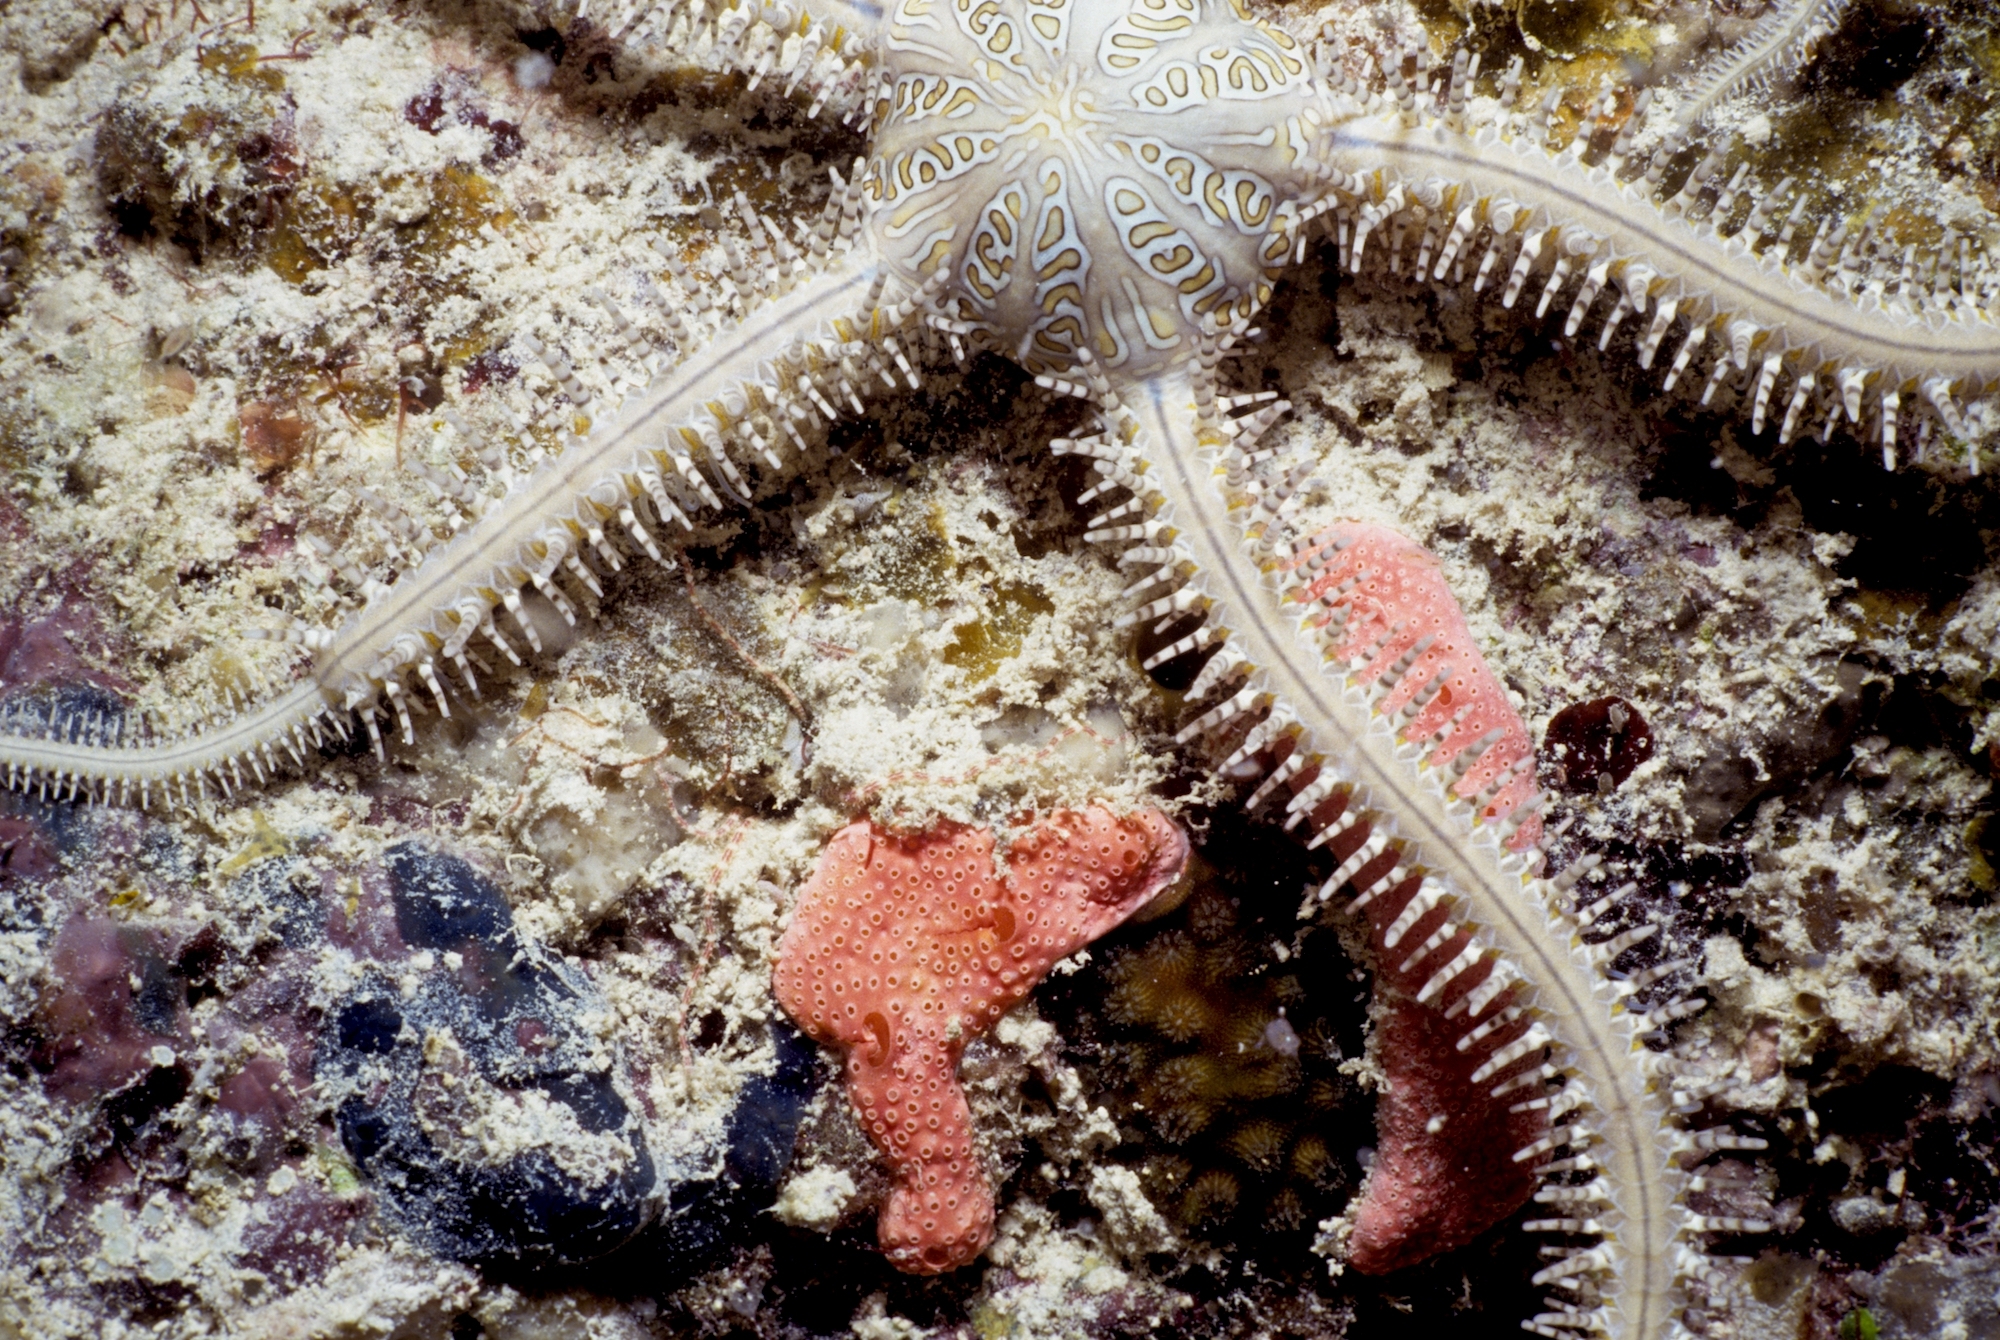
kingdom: Animalia
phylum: Echinodermata
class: Ophiuroidea
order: Ophiacanthida
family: Ophiocomidae
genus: Ophiomastix
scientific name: Ophiomastix pictum
